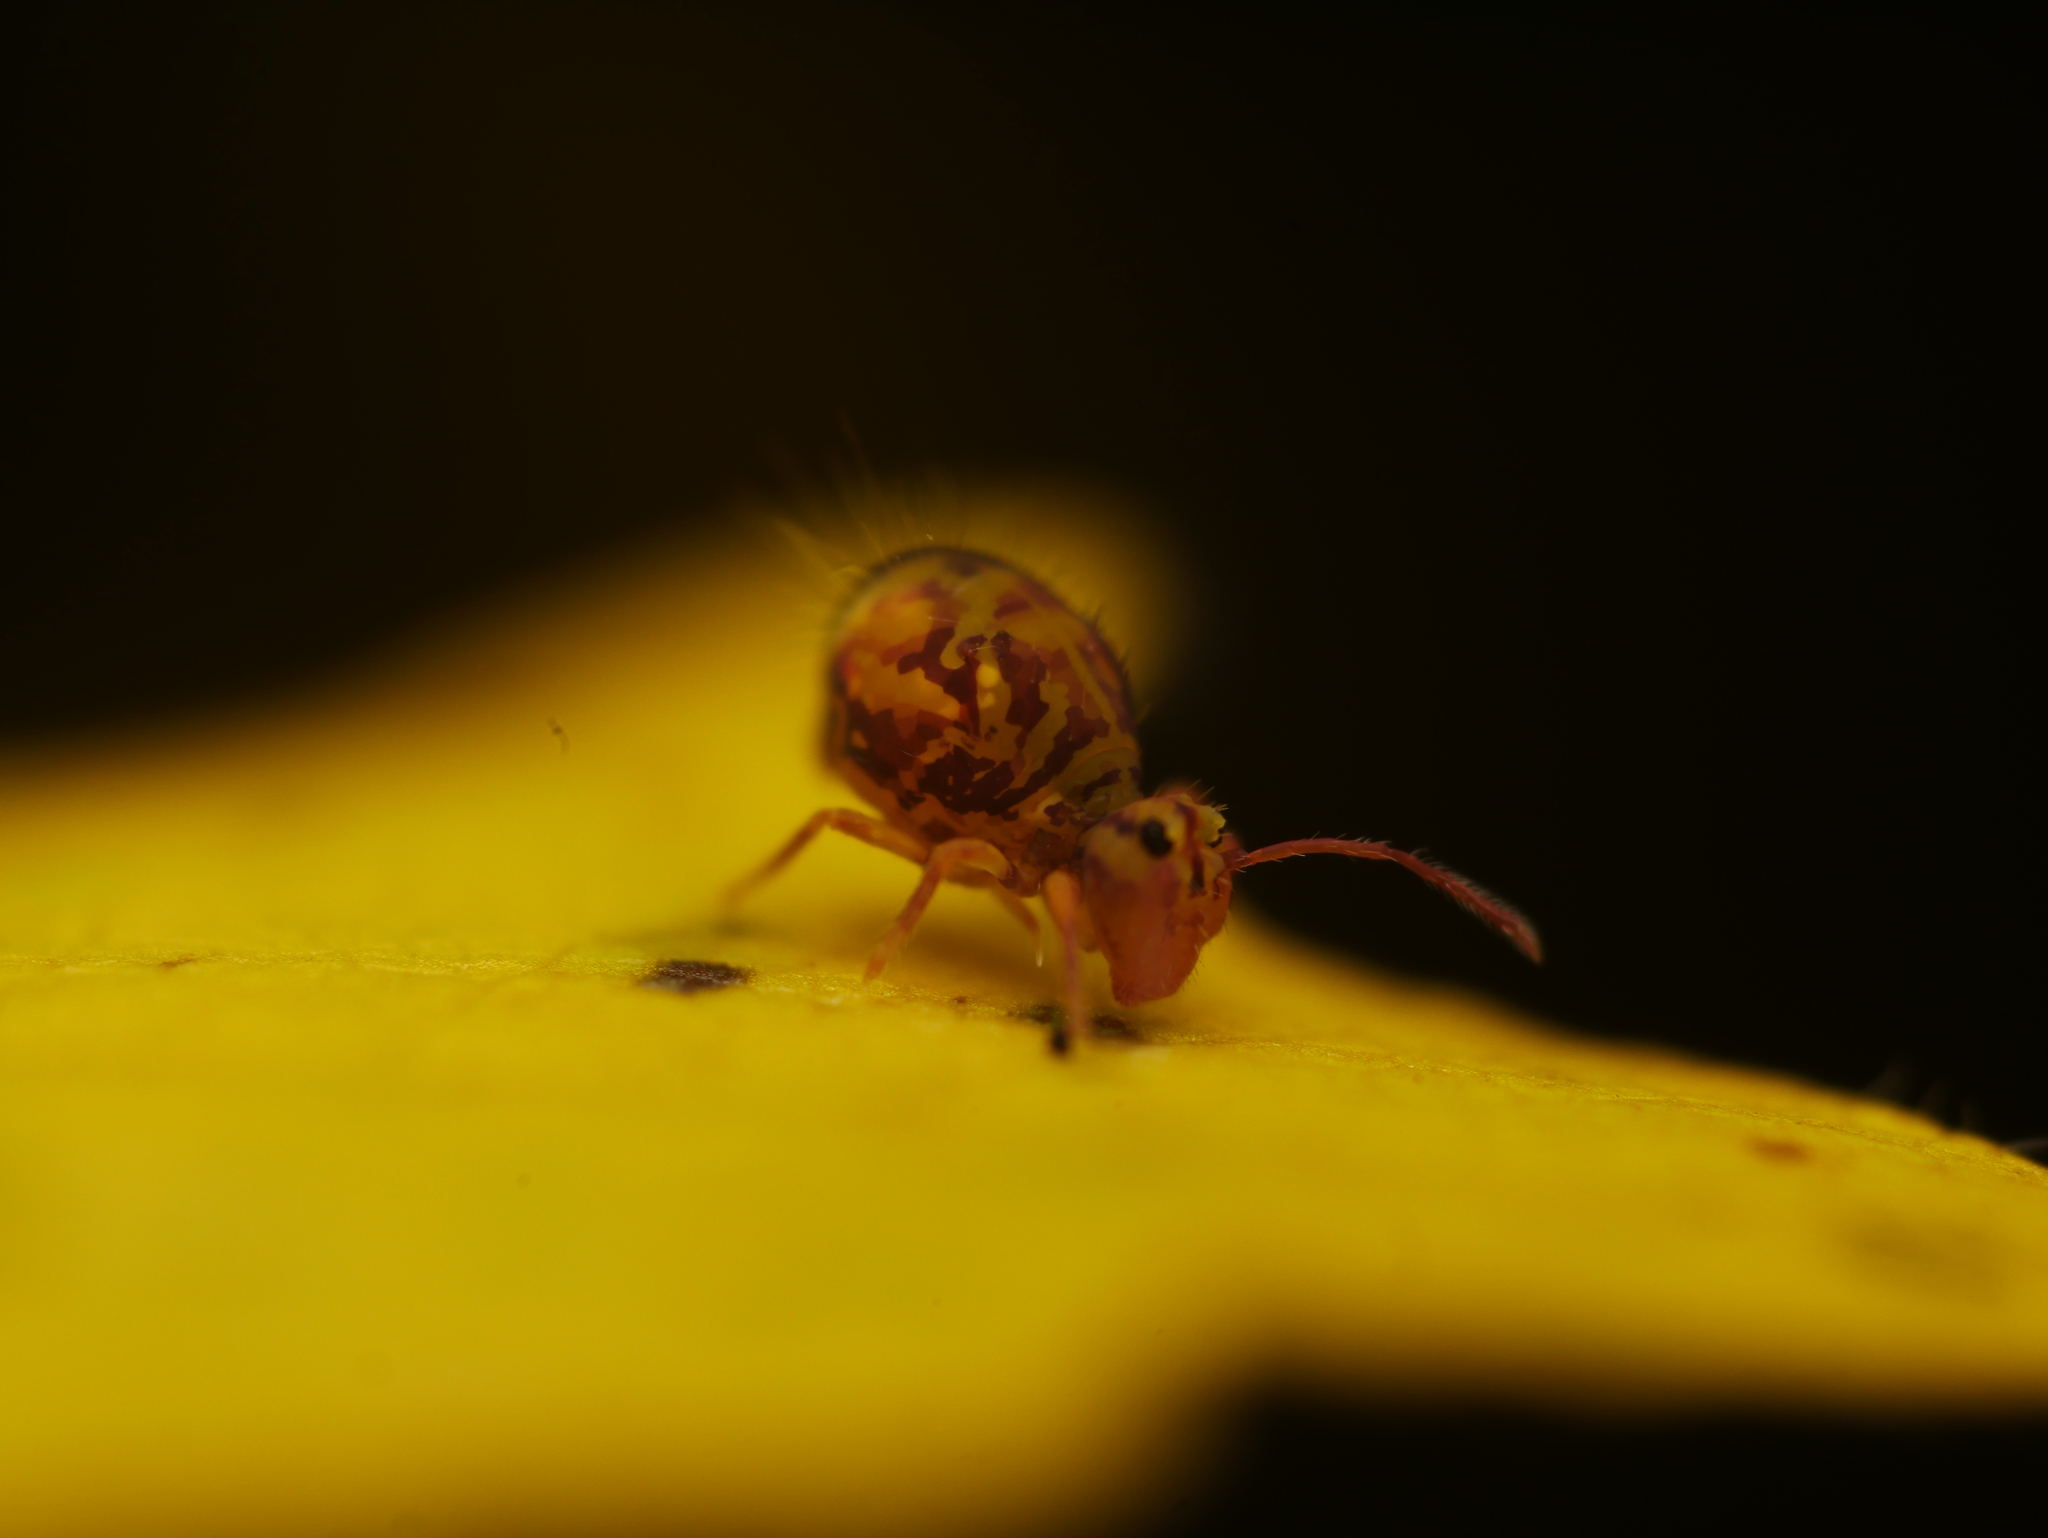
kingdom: Animalia
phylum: Arthropoda
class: Collembola
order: Symphypleona
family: Dicyrtomidae
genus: Dicyrtomina
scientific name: Dicyrtomina ornata
